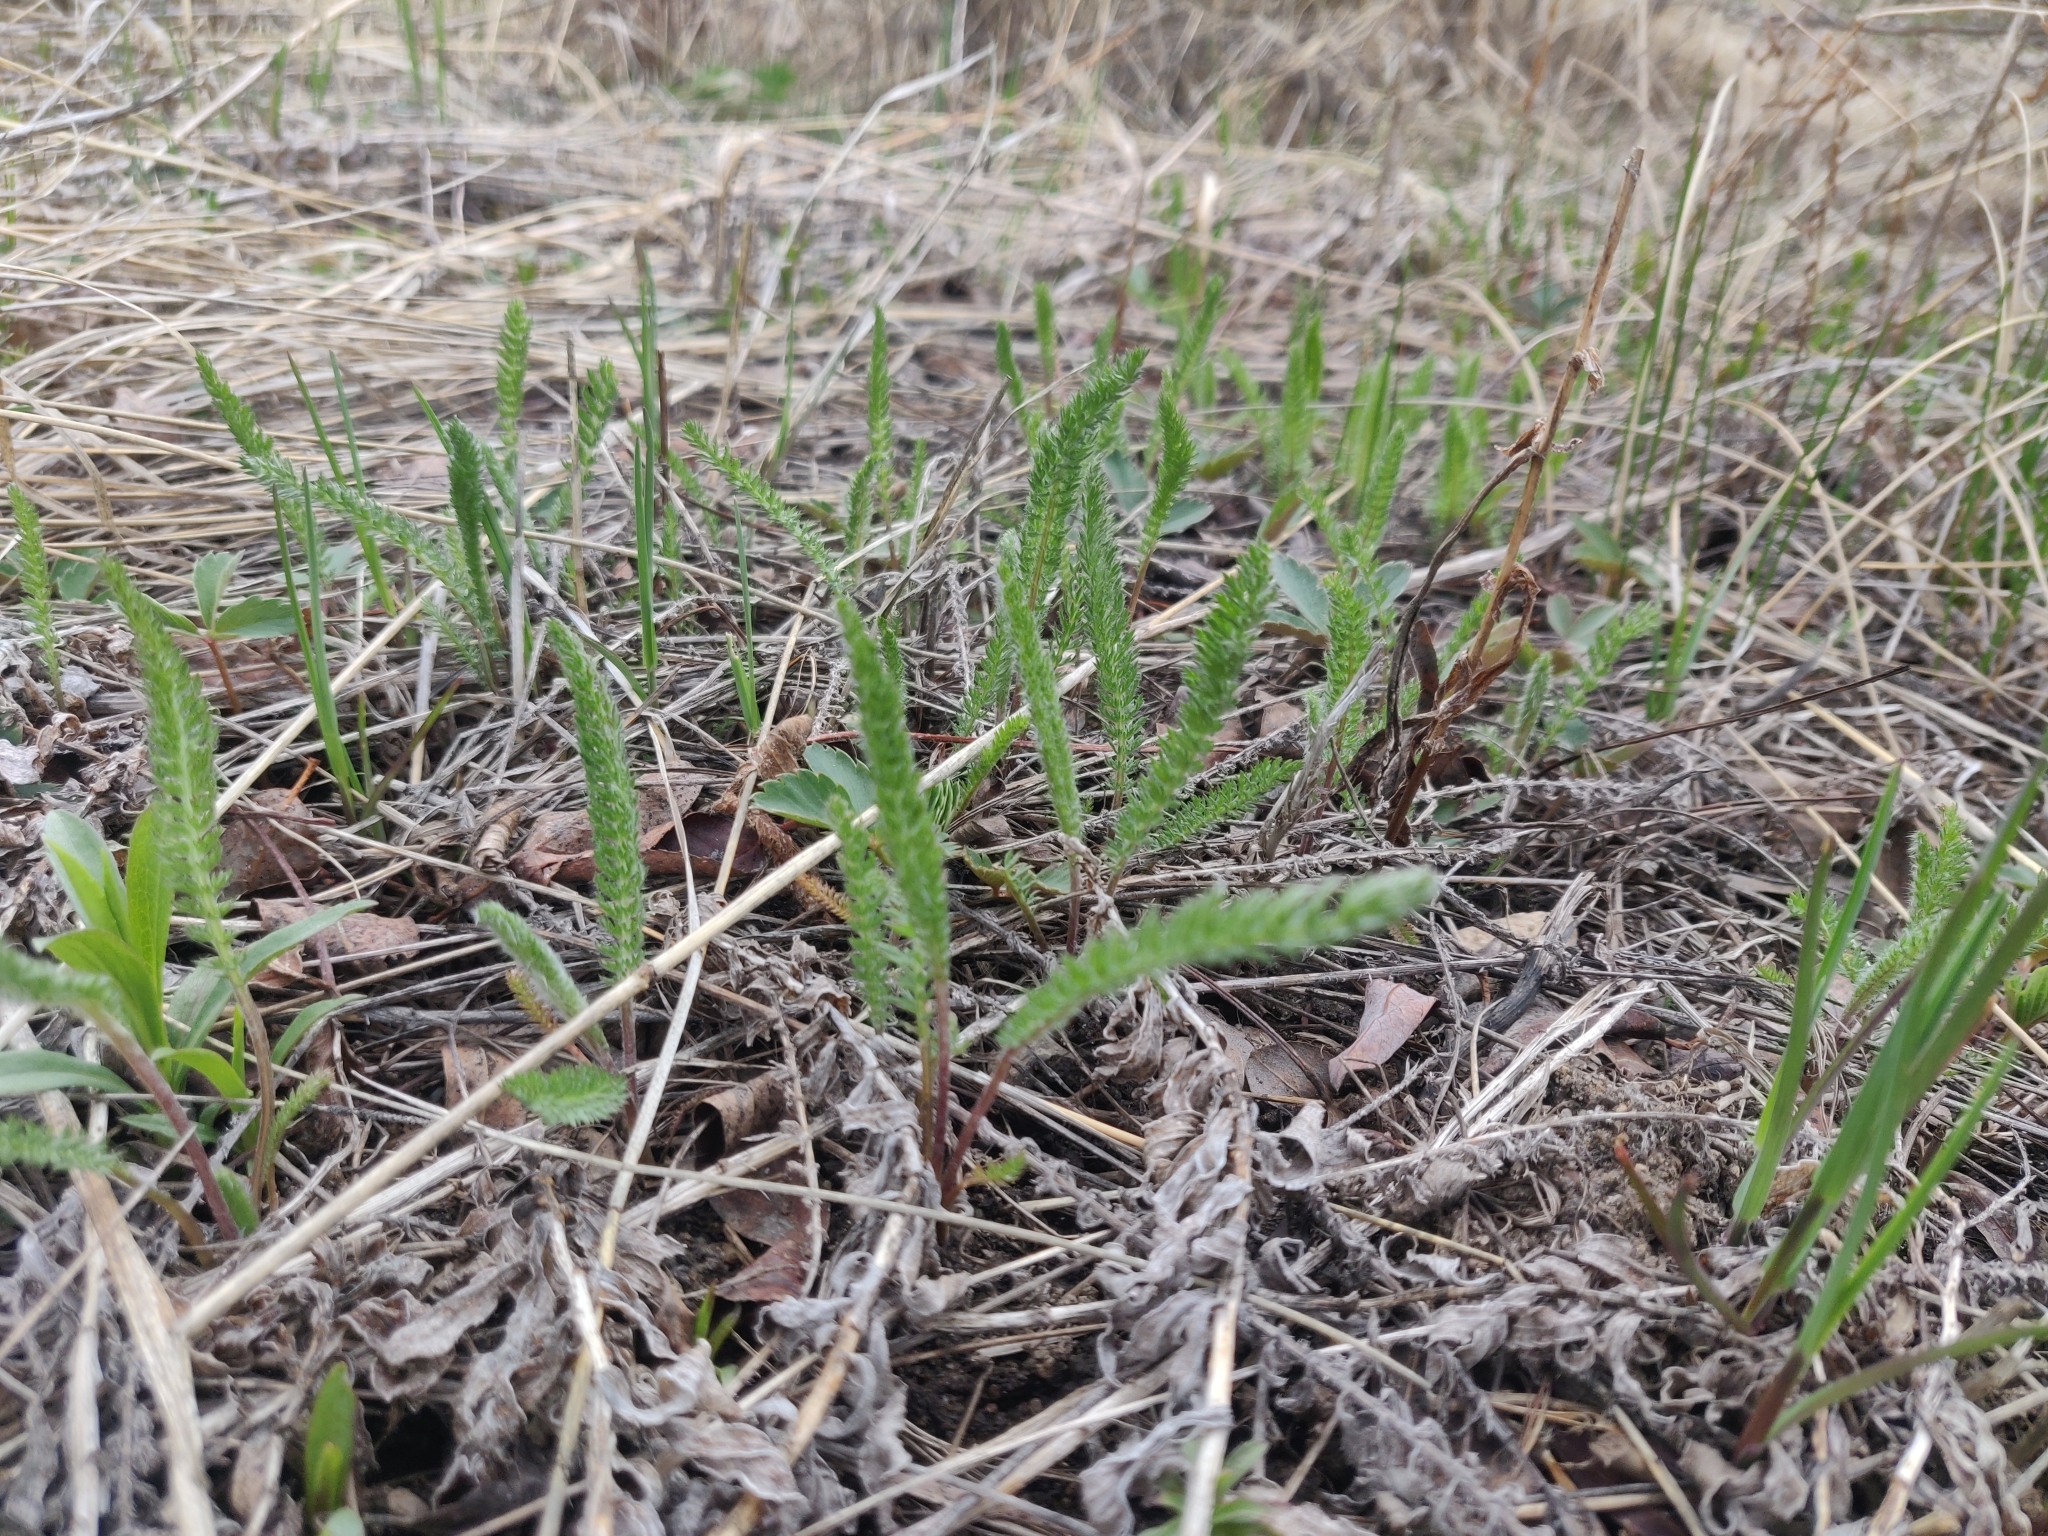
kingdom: Plantae
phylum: Tracheophyta
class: Magnoliopsida
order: Asterales
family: Asteraceae
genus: Achillea
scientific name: Achillea millefolium
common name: Yarrow
